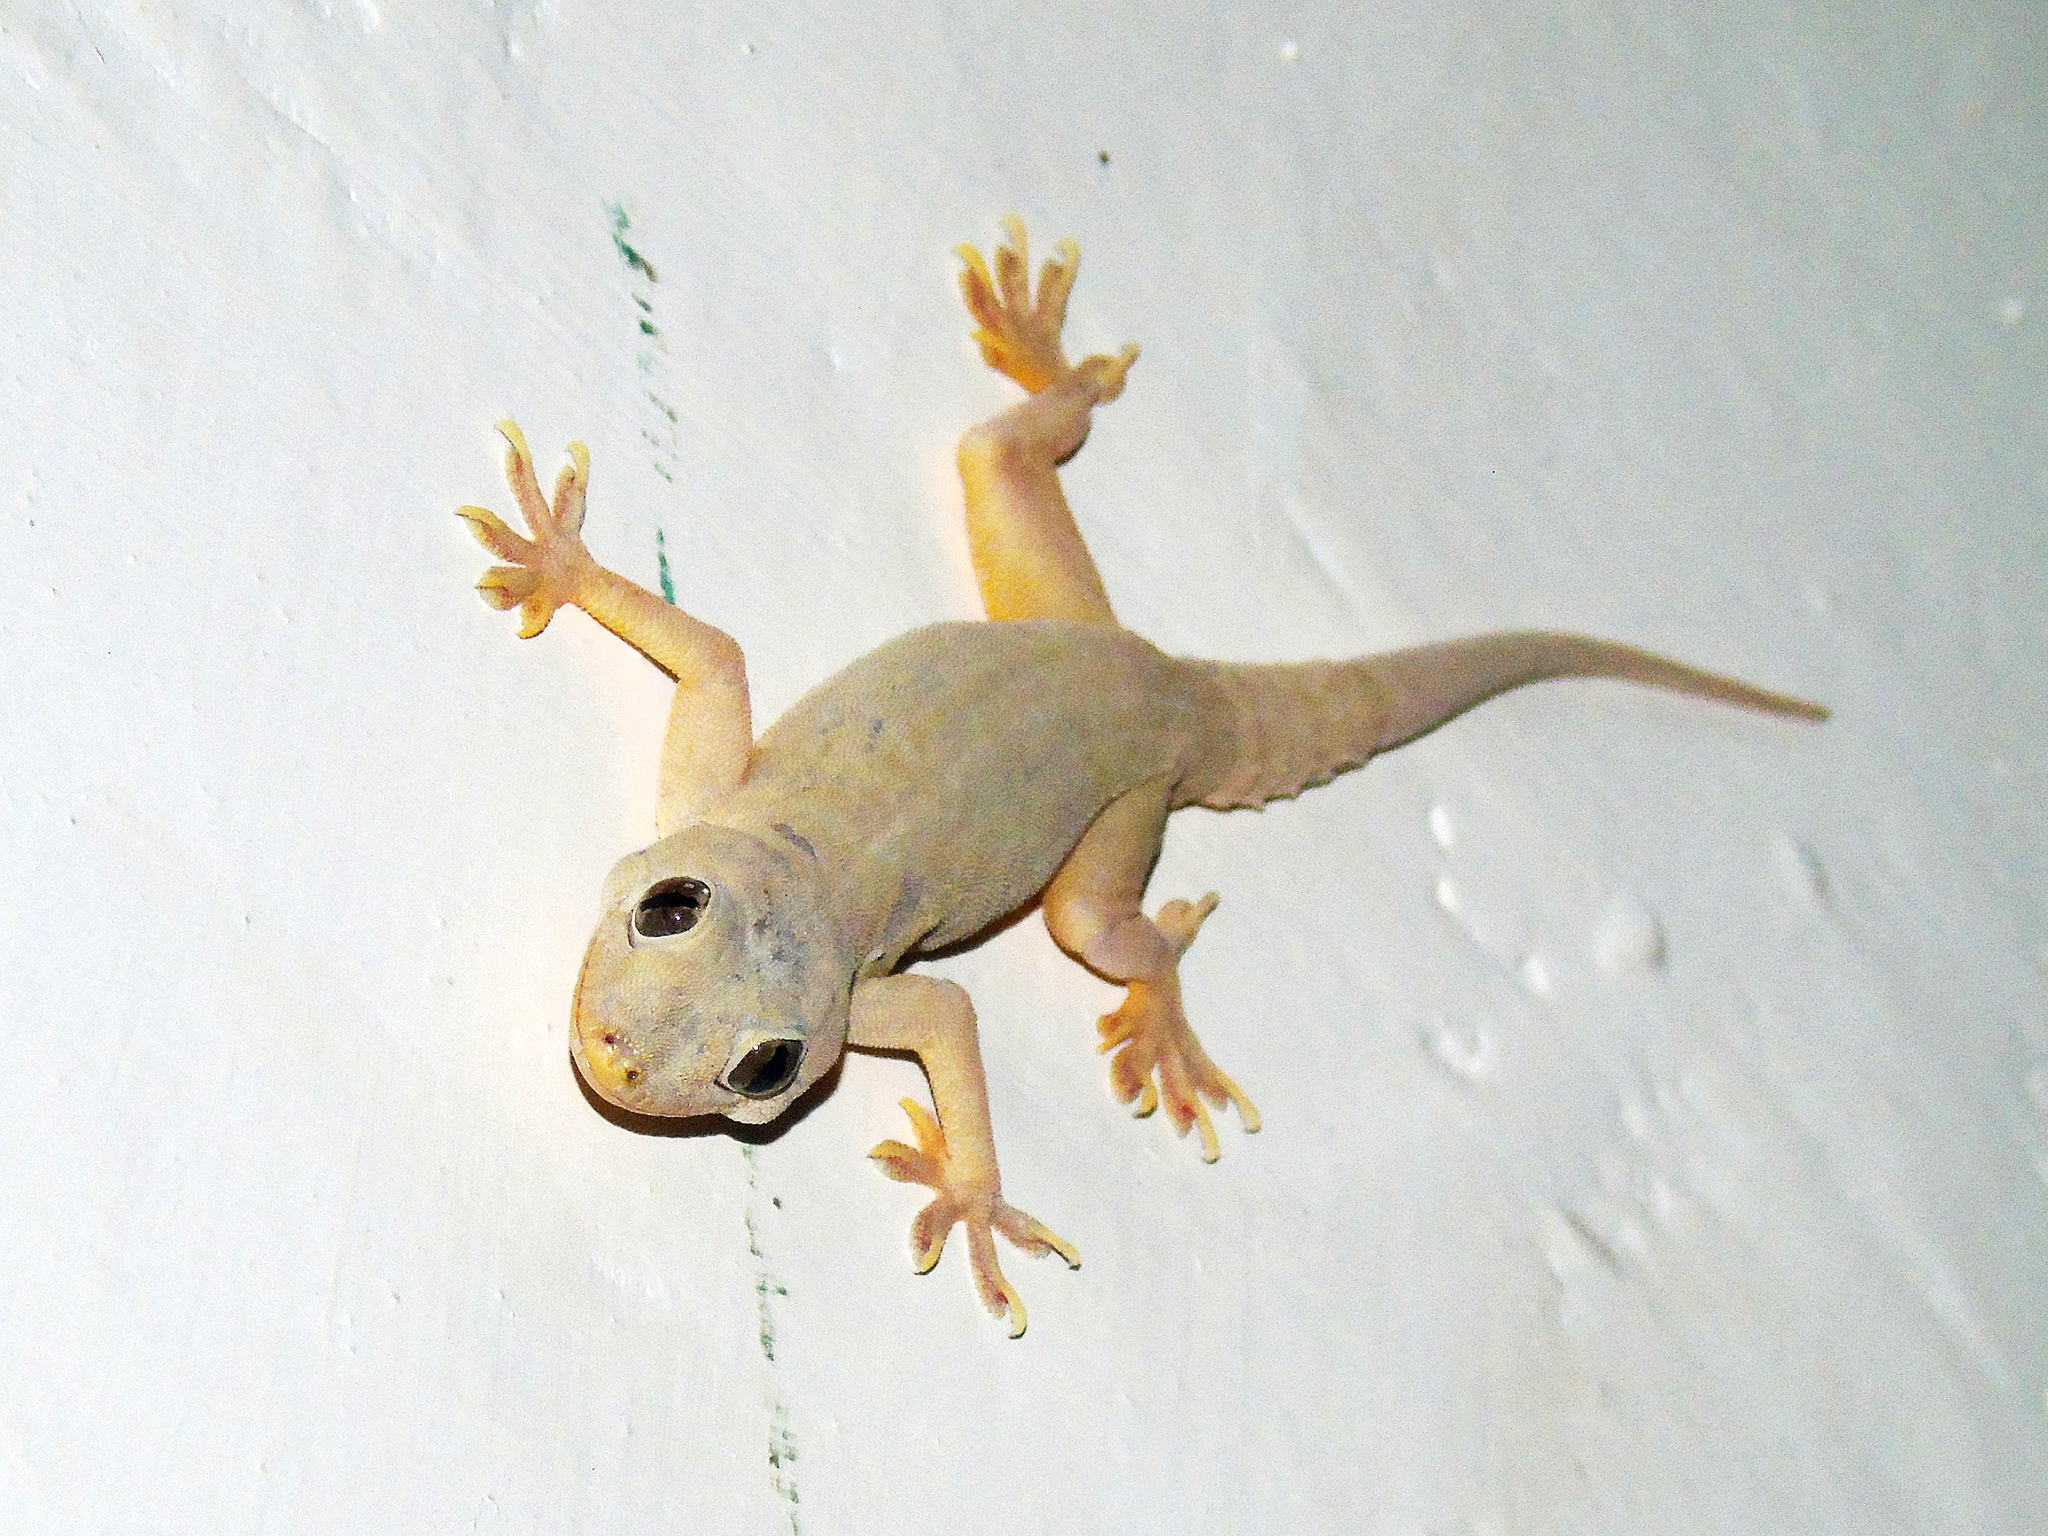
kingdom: Animalia
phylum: Chordata
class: Squamata
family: Gekkonidae
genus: Hemidactylus
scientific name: Hemidactylus flaviviridis
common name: Northern house gecko
